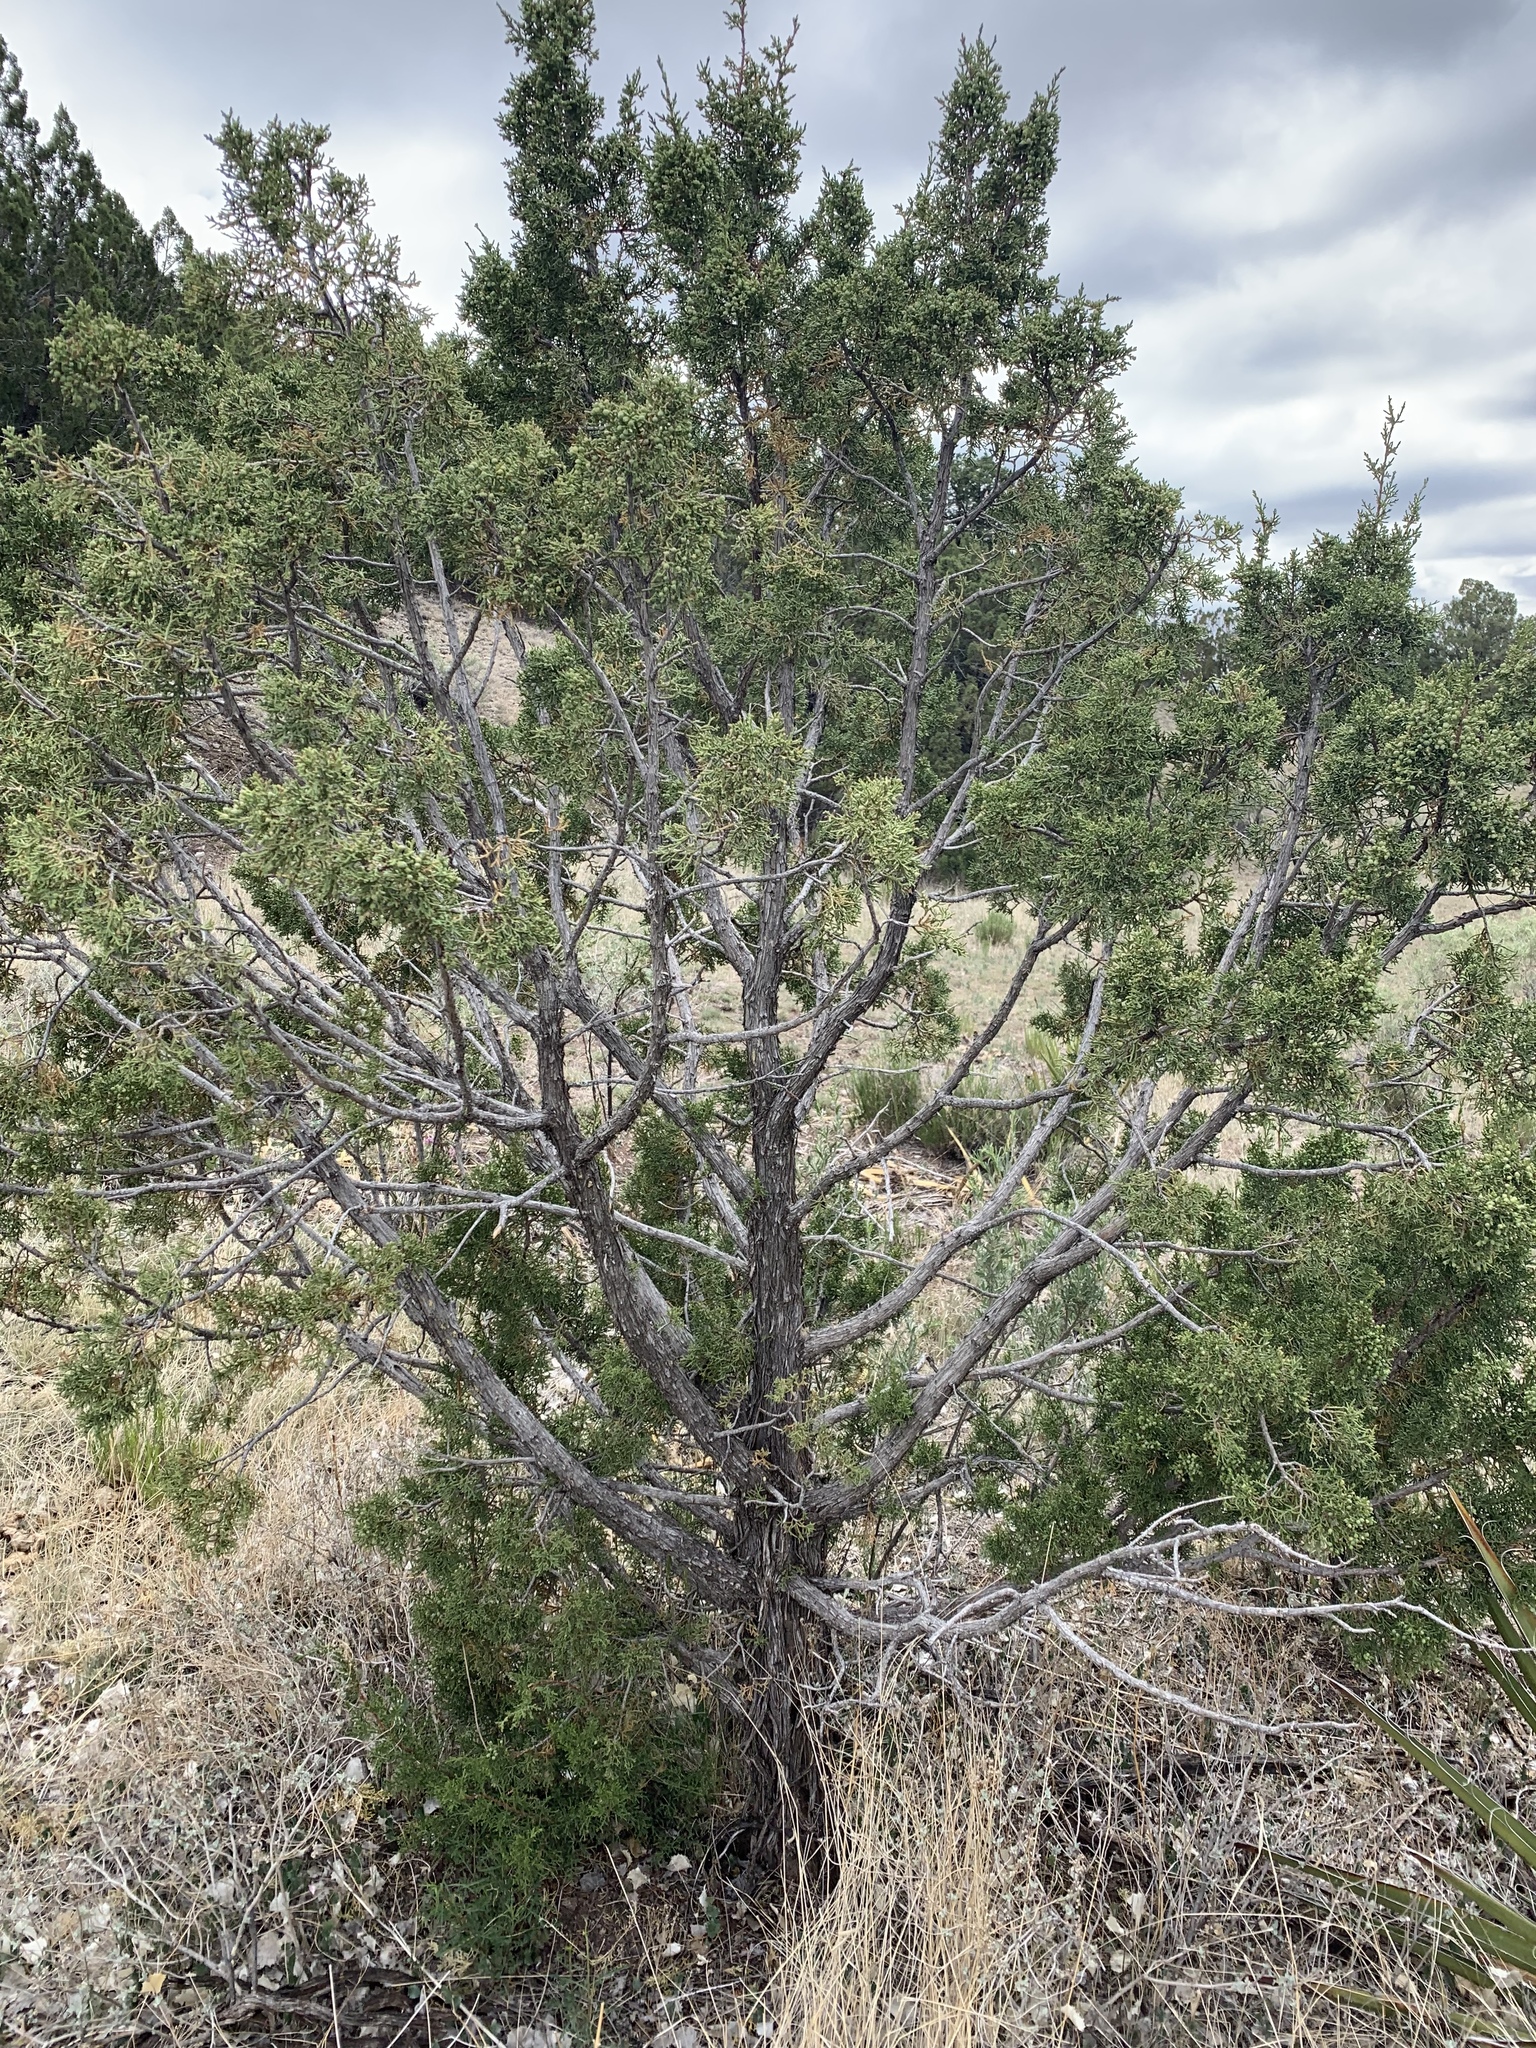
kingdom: Plantae
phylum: Tracheophyta
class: Pinopsida
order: Pinales
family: Cupressaceae
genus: Juniperus
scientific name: Juniperus monosperma
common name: One-seed juniper
